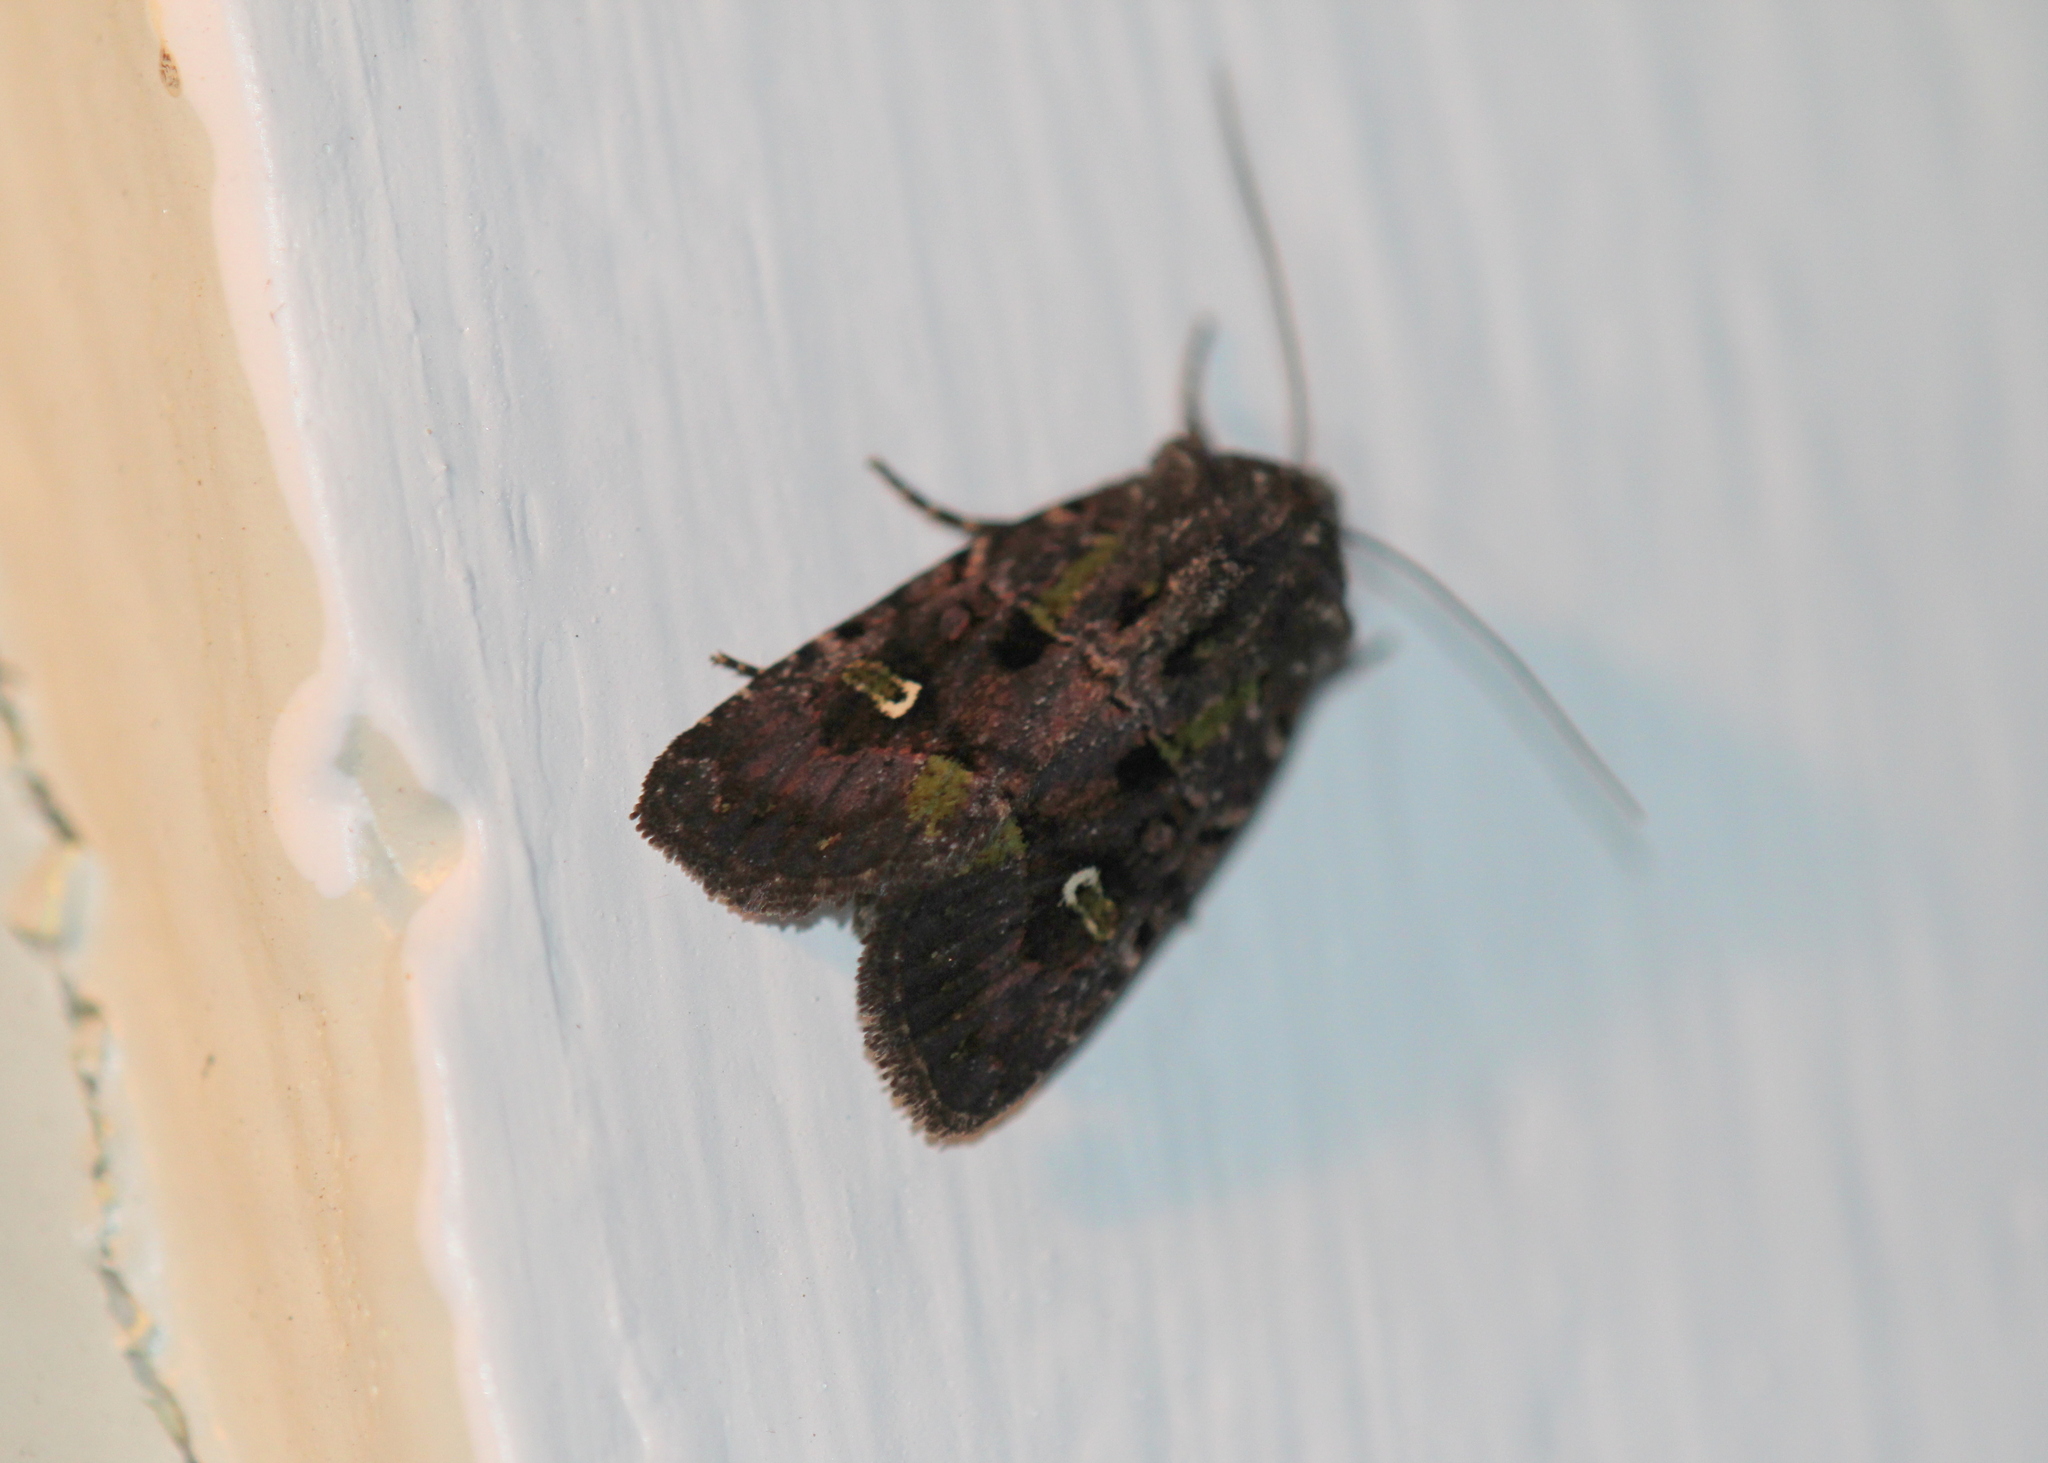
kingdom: Animalia
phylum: Arthropoda
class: Insecta
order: Lepidoptera
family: Noctuidae
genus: Lacinipolia
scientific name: Lacinipolia renigera
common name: Kidney-spotted minor
